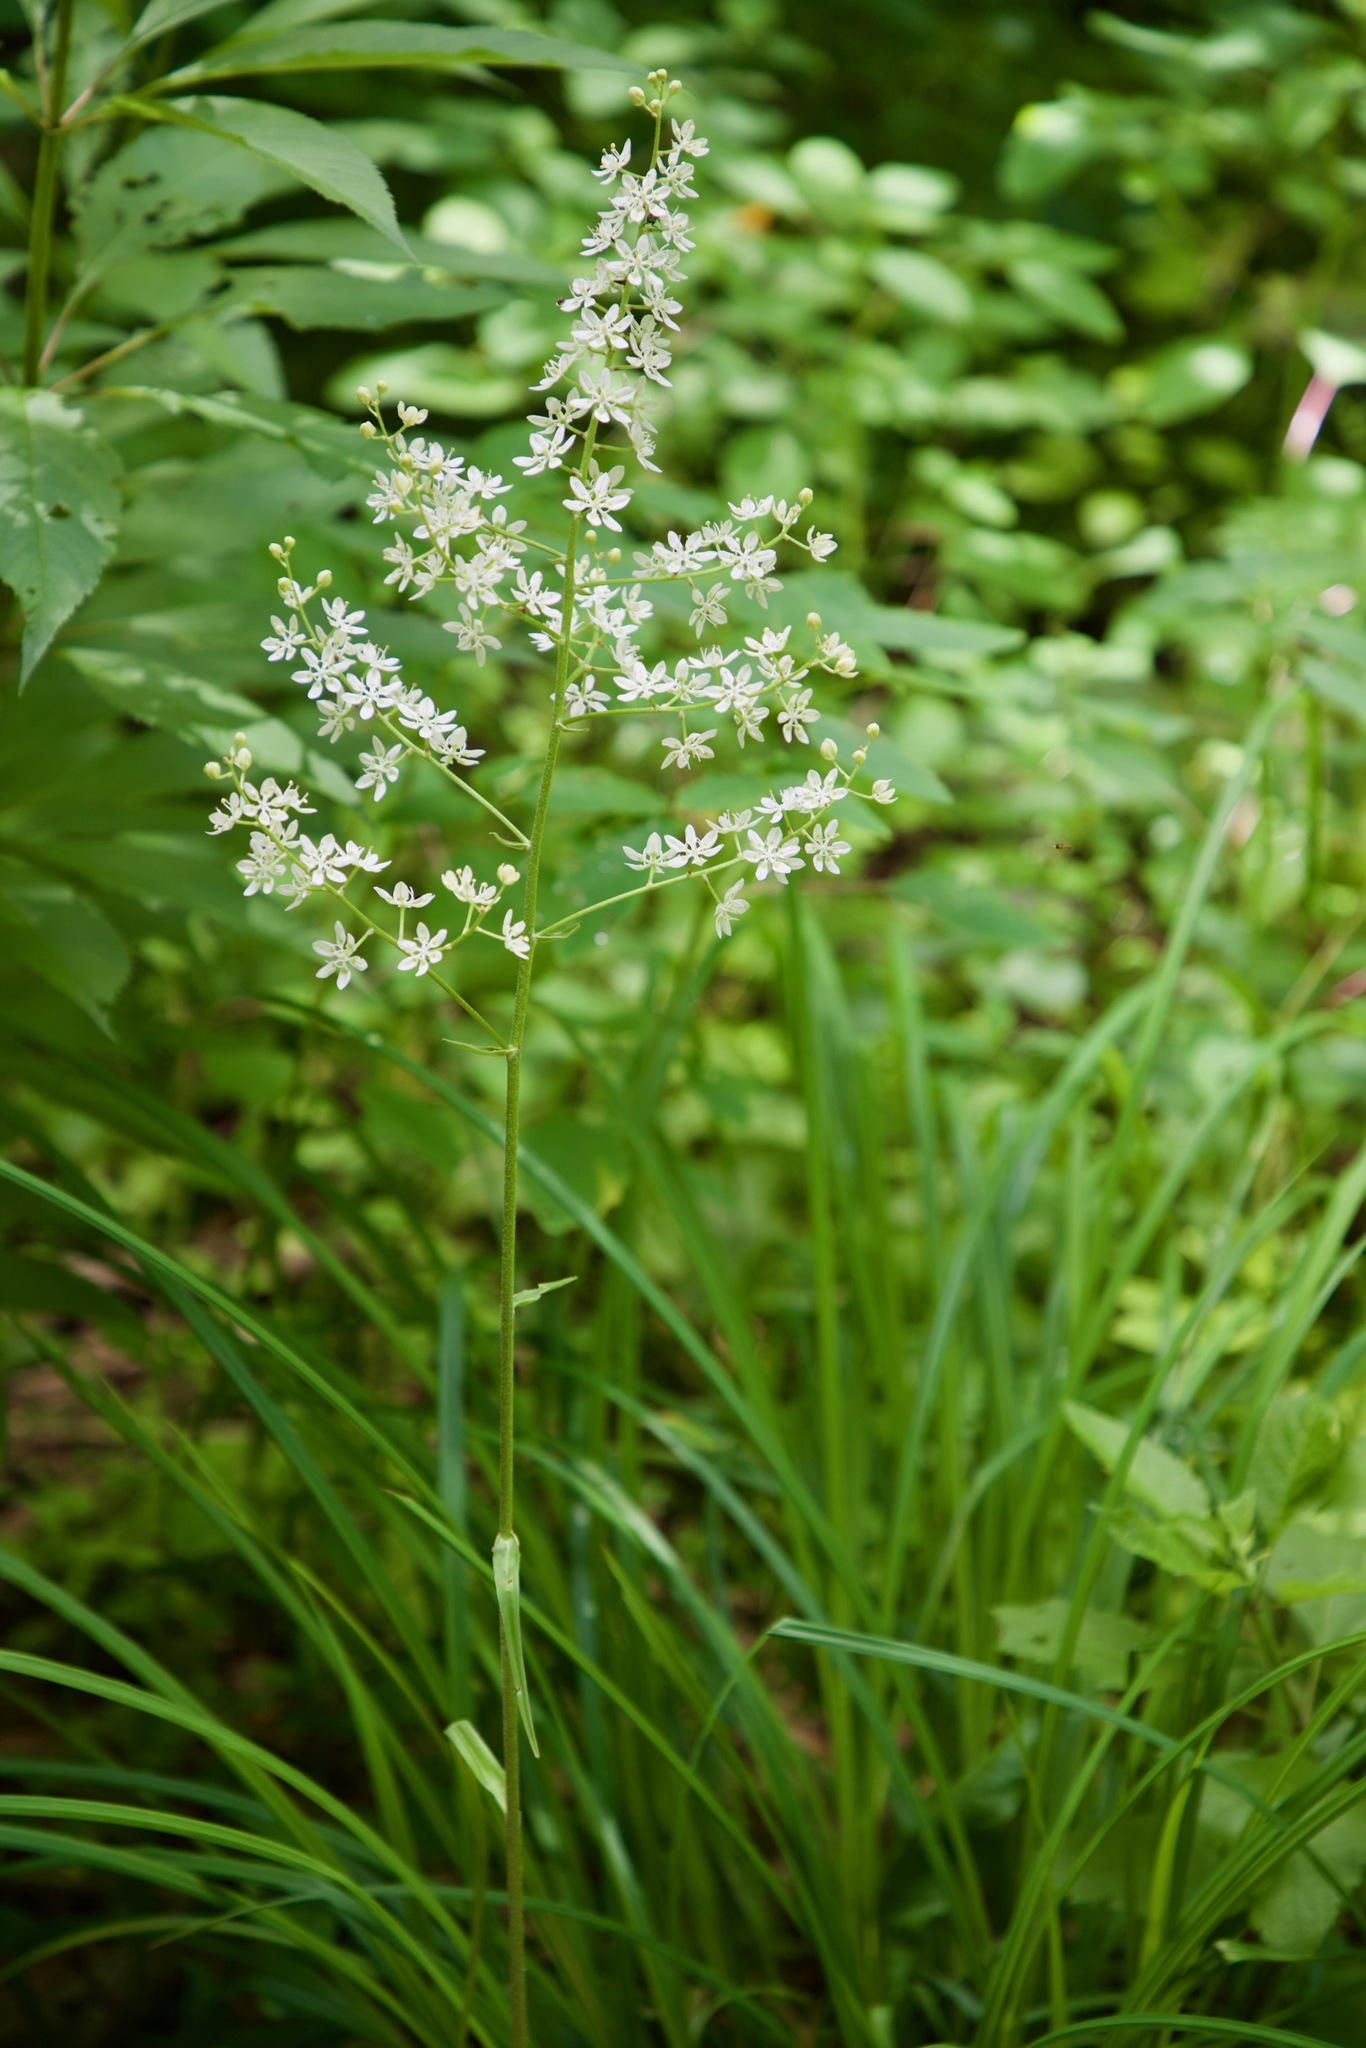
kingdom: Plantae
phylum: Tracheophyta
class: Liliopsida
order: Liliales
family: Melanthiaceae
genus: Melanthium
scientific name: Melanthium virginicum
